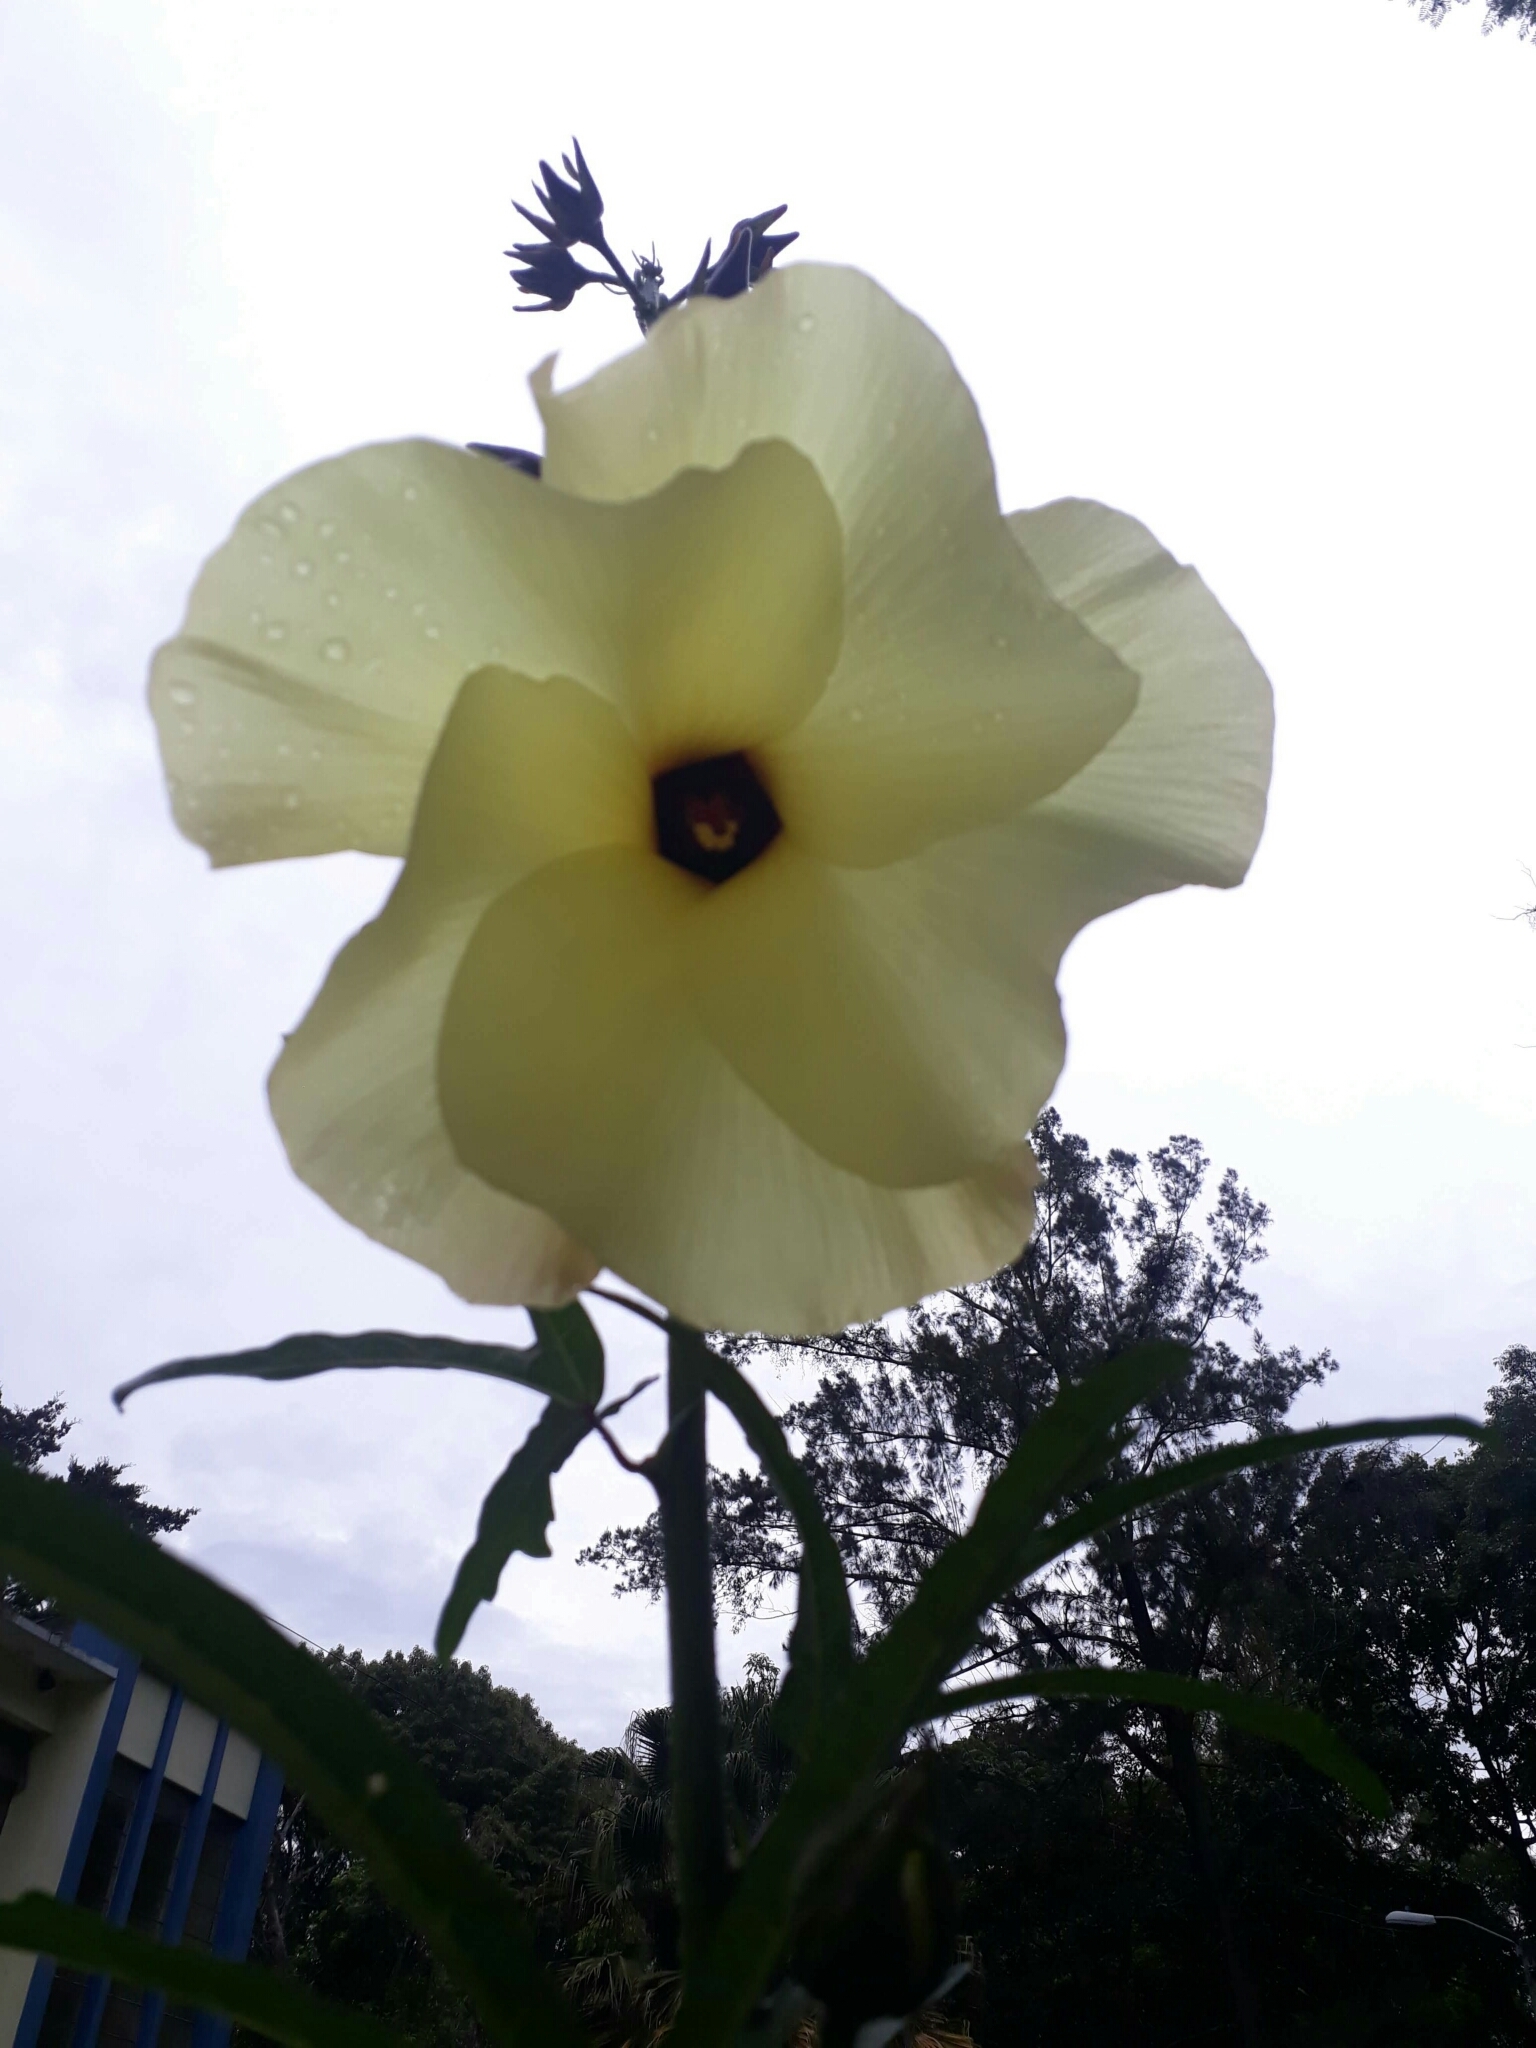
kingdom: Plantae
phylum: Tracheophyta
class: Magnoliopsida
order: Malvales
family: Malvaceae
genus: Abelmoschus
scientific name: Abelmoschus manihot
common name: Sunset muskmallow
